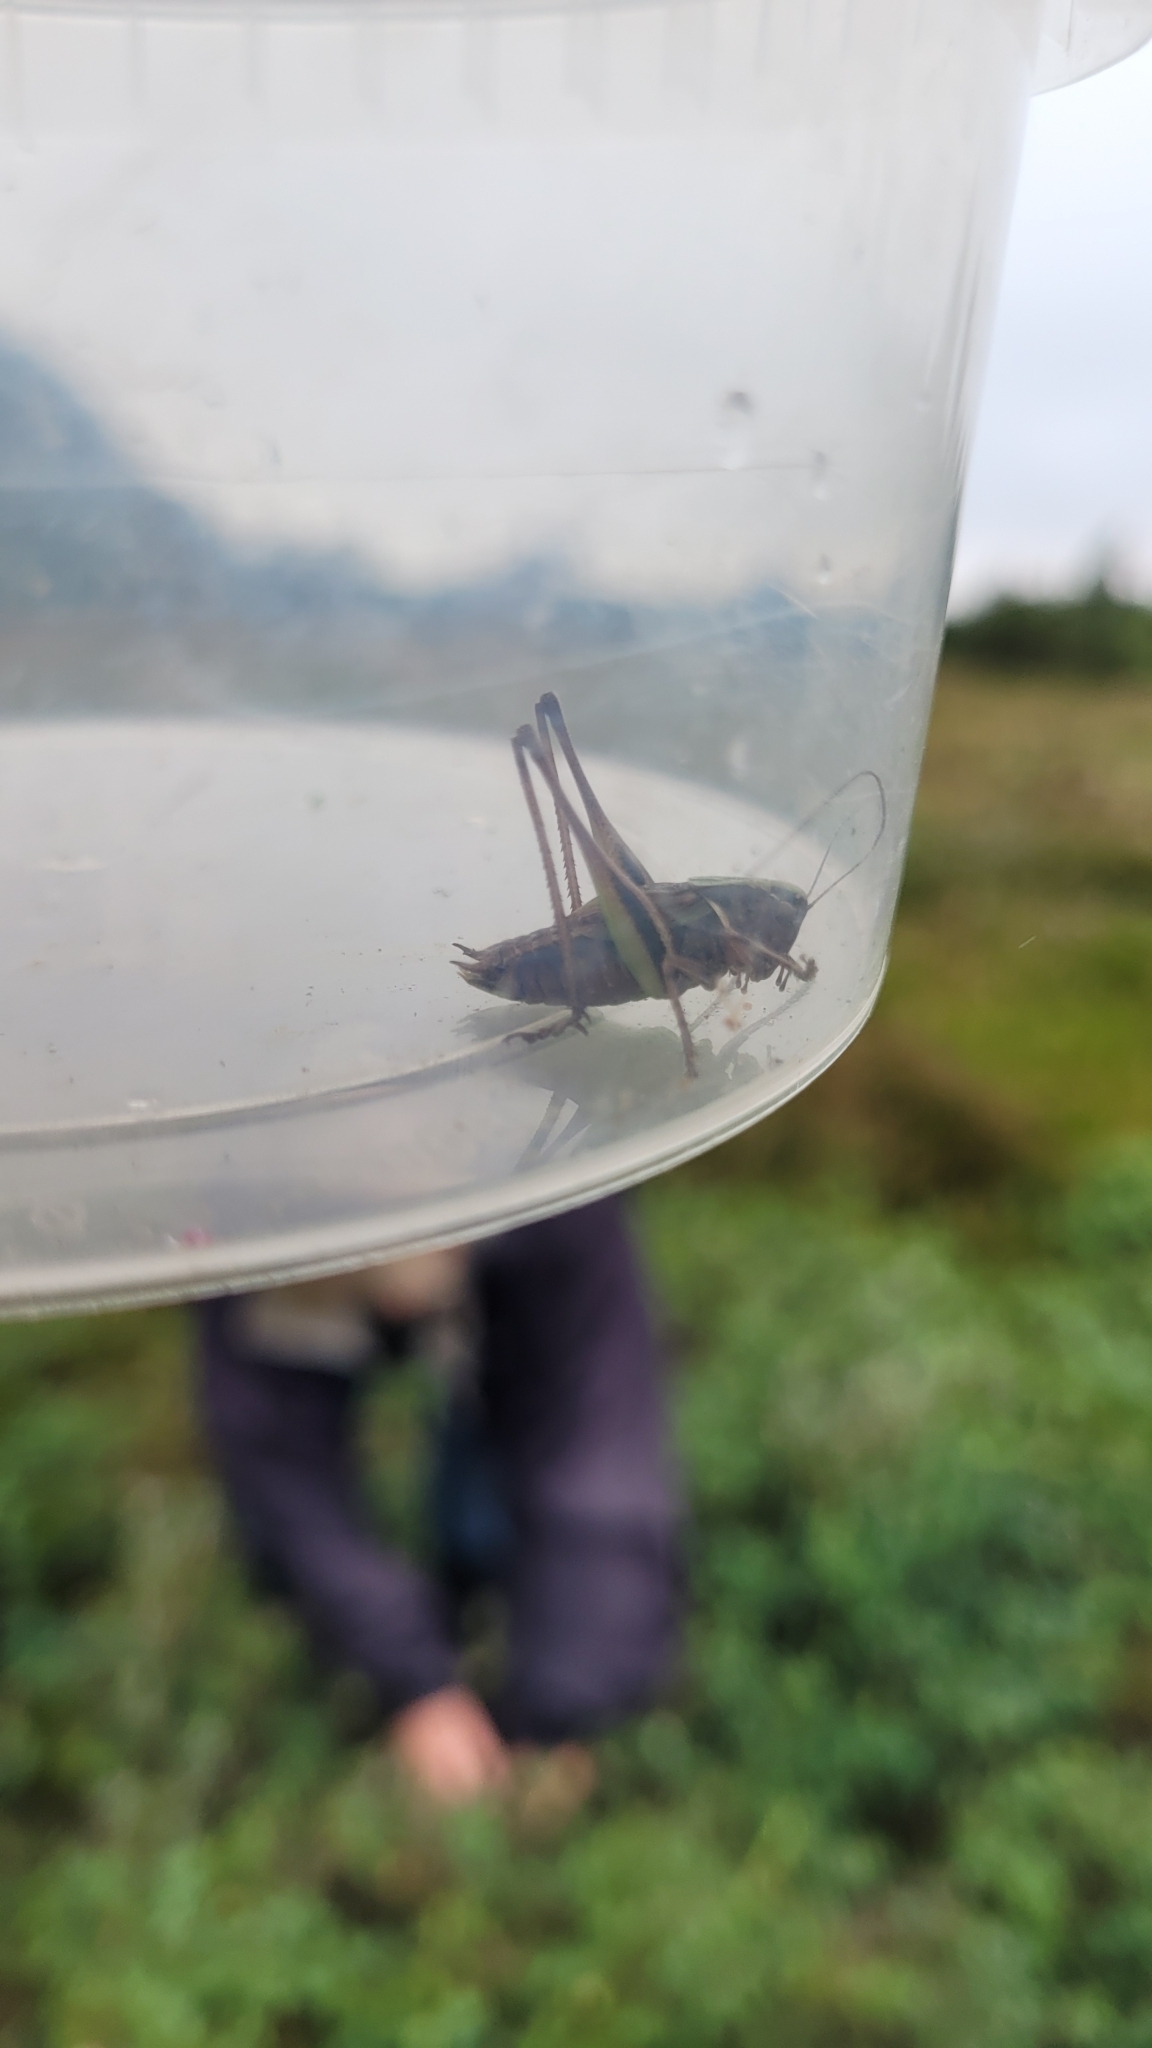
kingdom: Animalia
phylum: Arthropoda
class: Insecta
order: Orthoptera
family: Tettigoniidae
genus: Metrioptera
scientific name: Metrioptera brachyptera
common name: Bog bush-cricket
